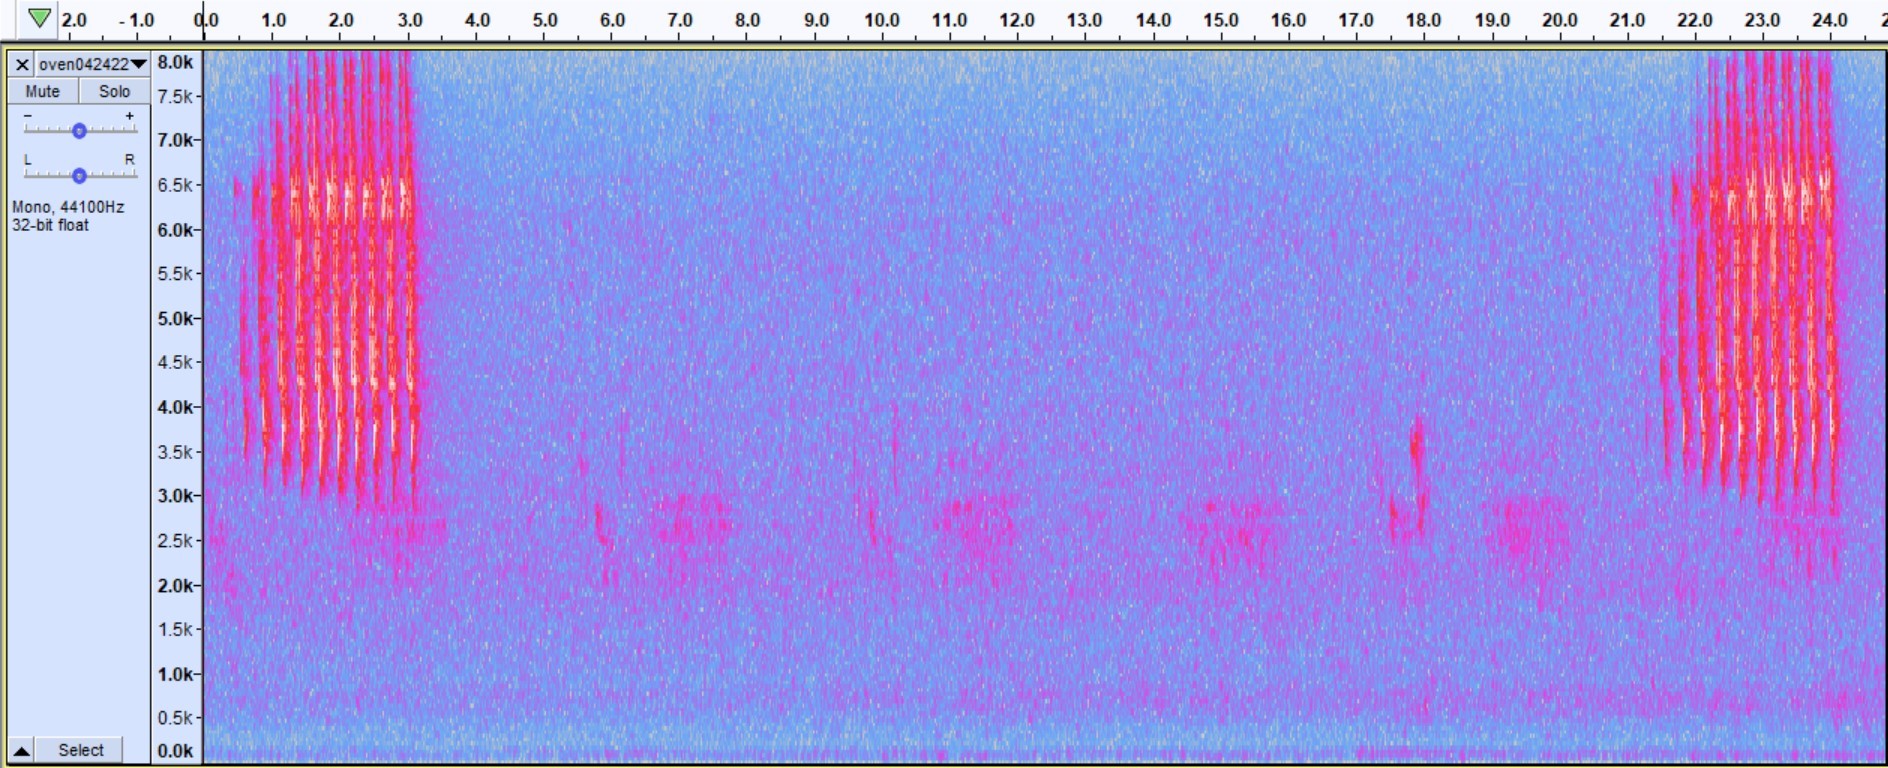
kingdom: Animalia
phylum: Chordata
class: Aves
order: Passeriformes
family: Parulidae
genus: Seiurus
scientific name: Seiurus aurocapilla
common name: Ovenbird
